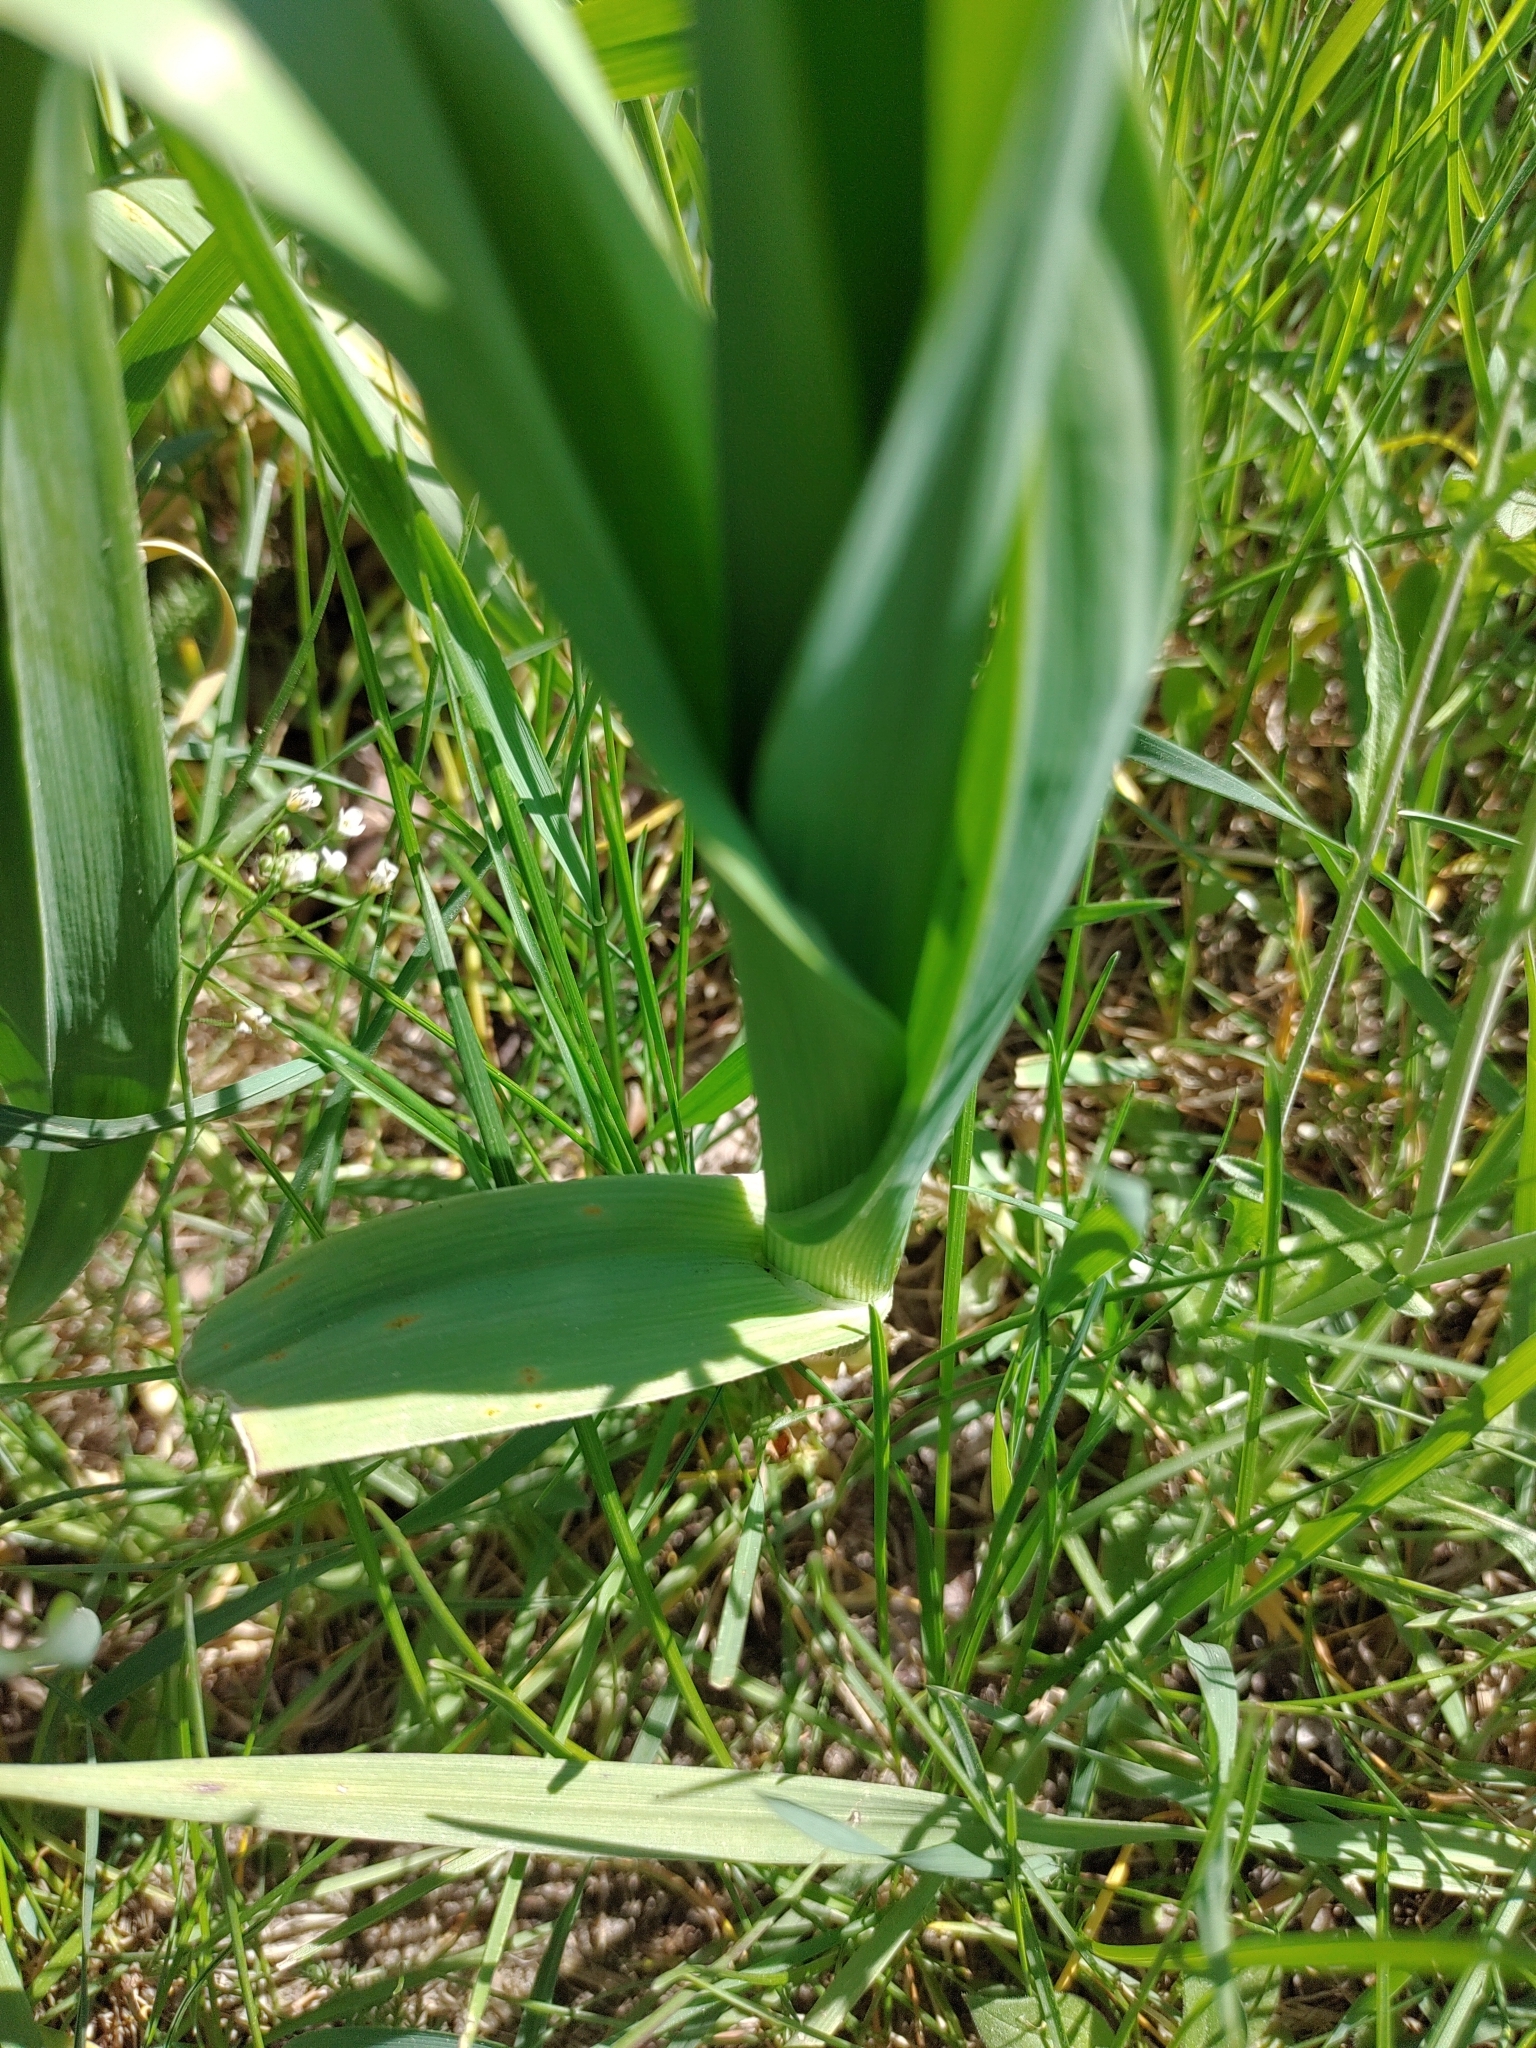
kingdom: Plantae
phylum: Tracheophyta
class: Liliopsida
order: Asparagales
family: Amaryllidaceae
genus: Allium
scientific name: Allium scorodoprasum
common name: Sand leek
